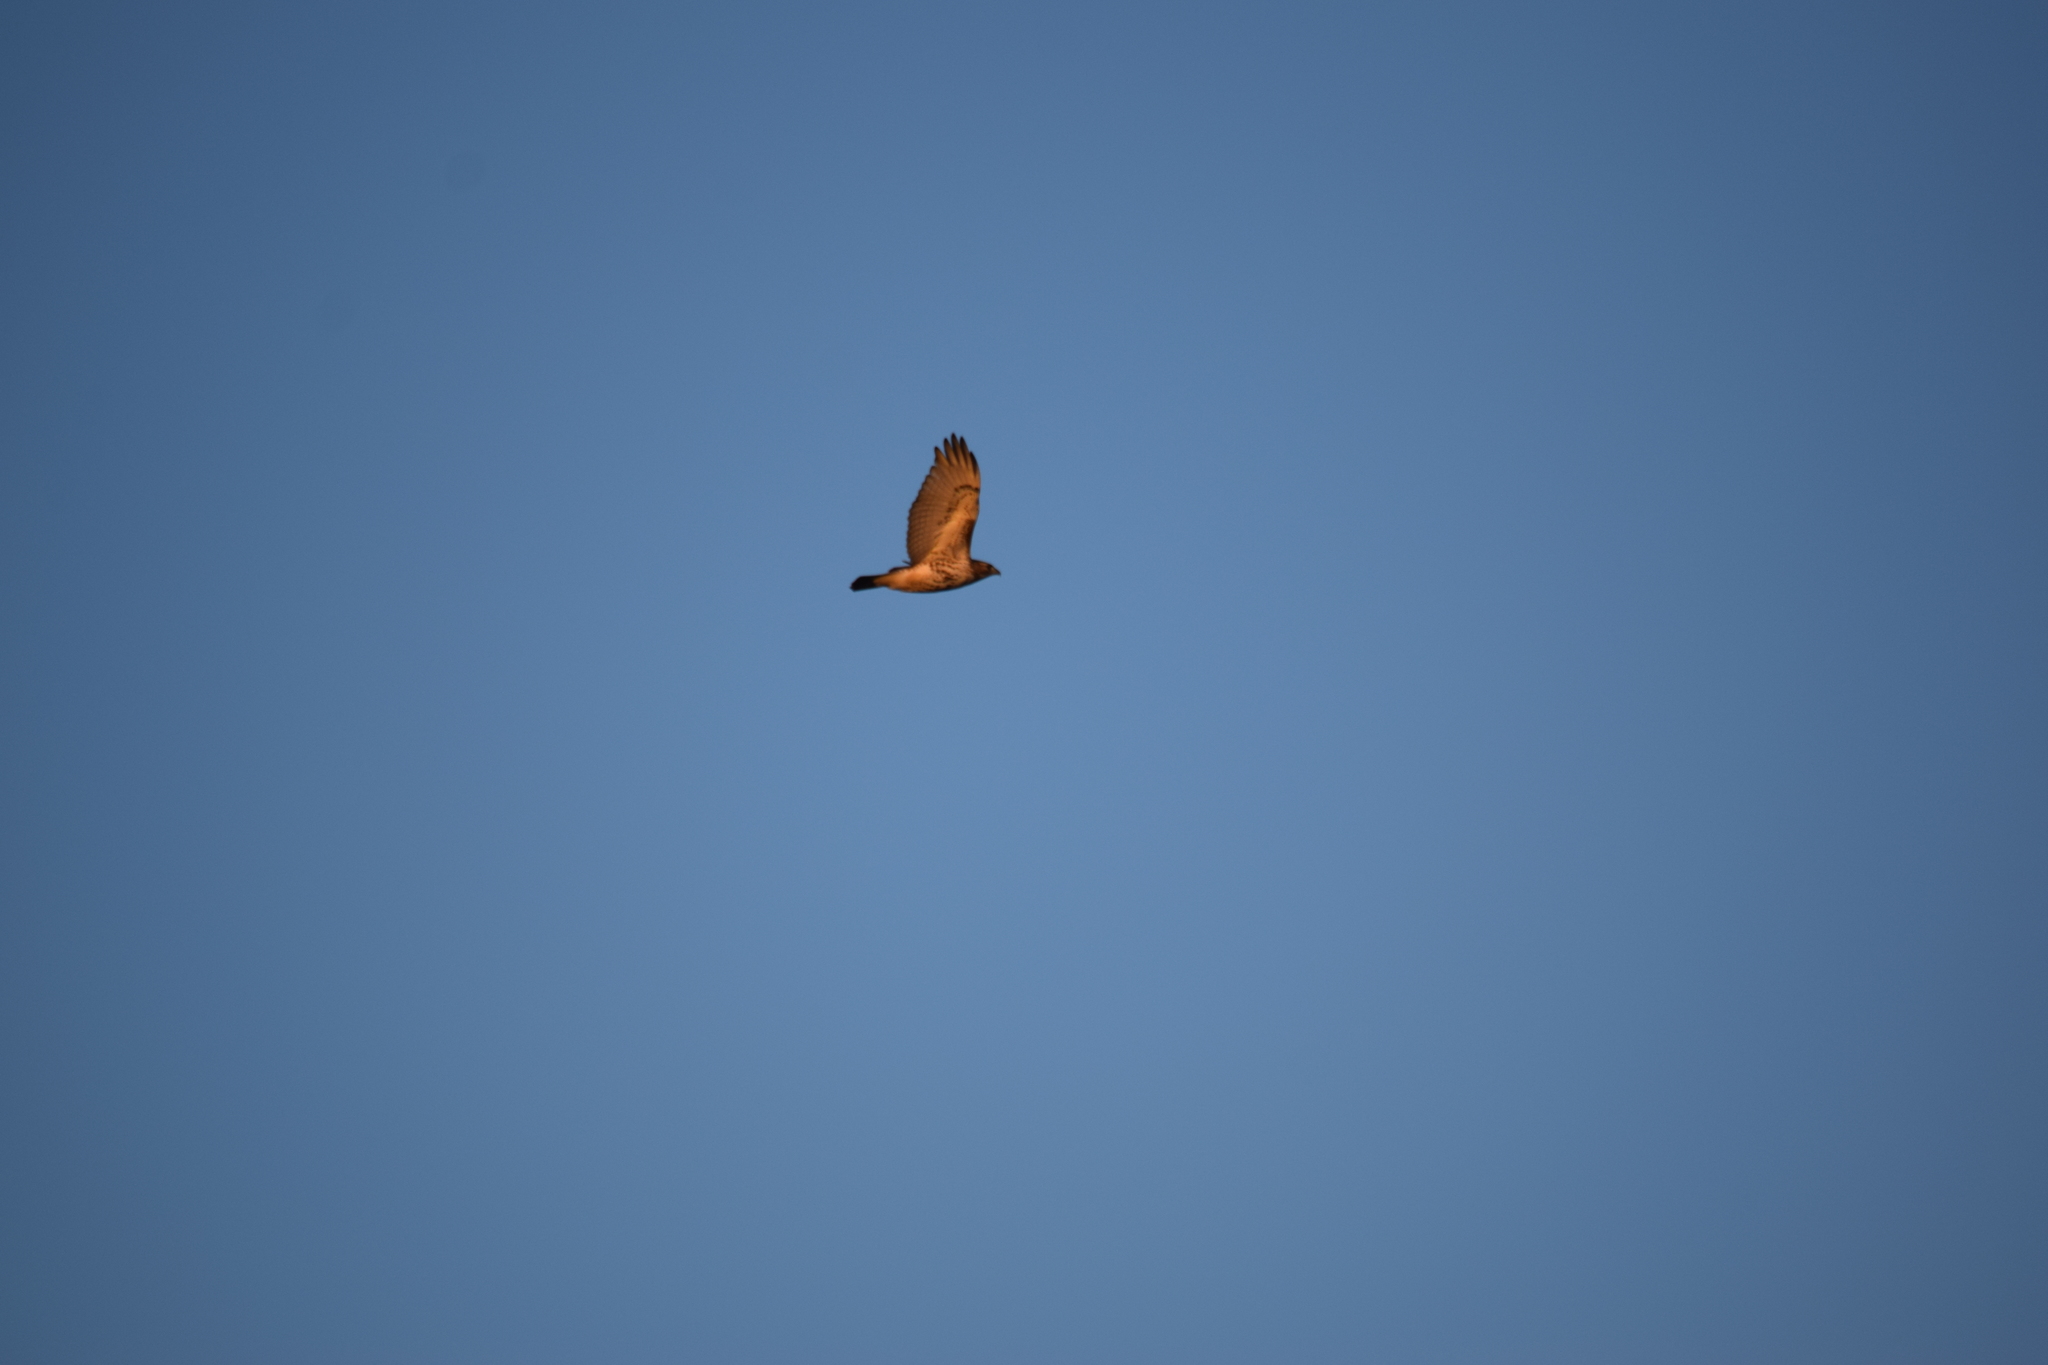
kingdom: Animalia
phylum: Chordata
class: Aves
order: Accipitriformes
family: Accipitridae
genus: Buteo
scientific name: Buteo jamaicensis
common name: Red-tailed hawk
